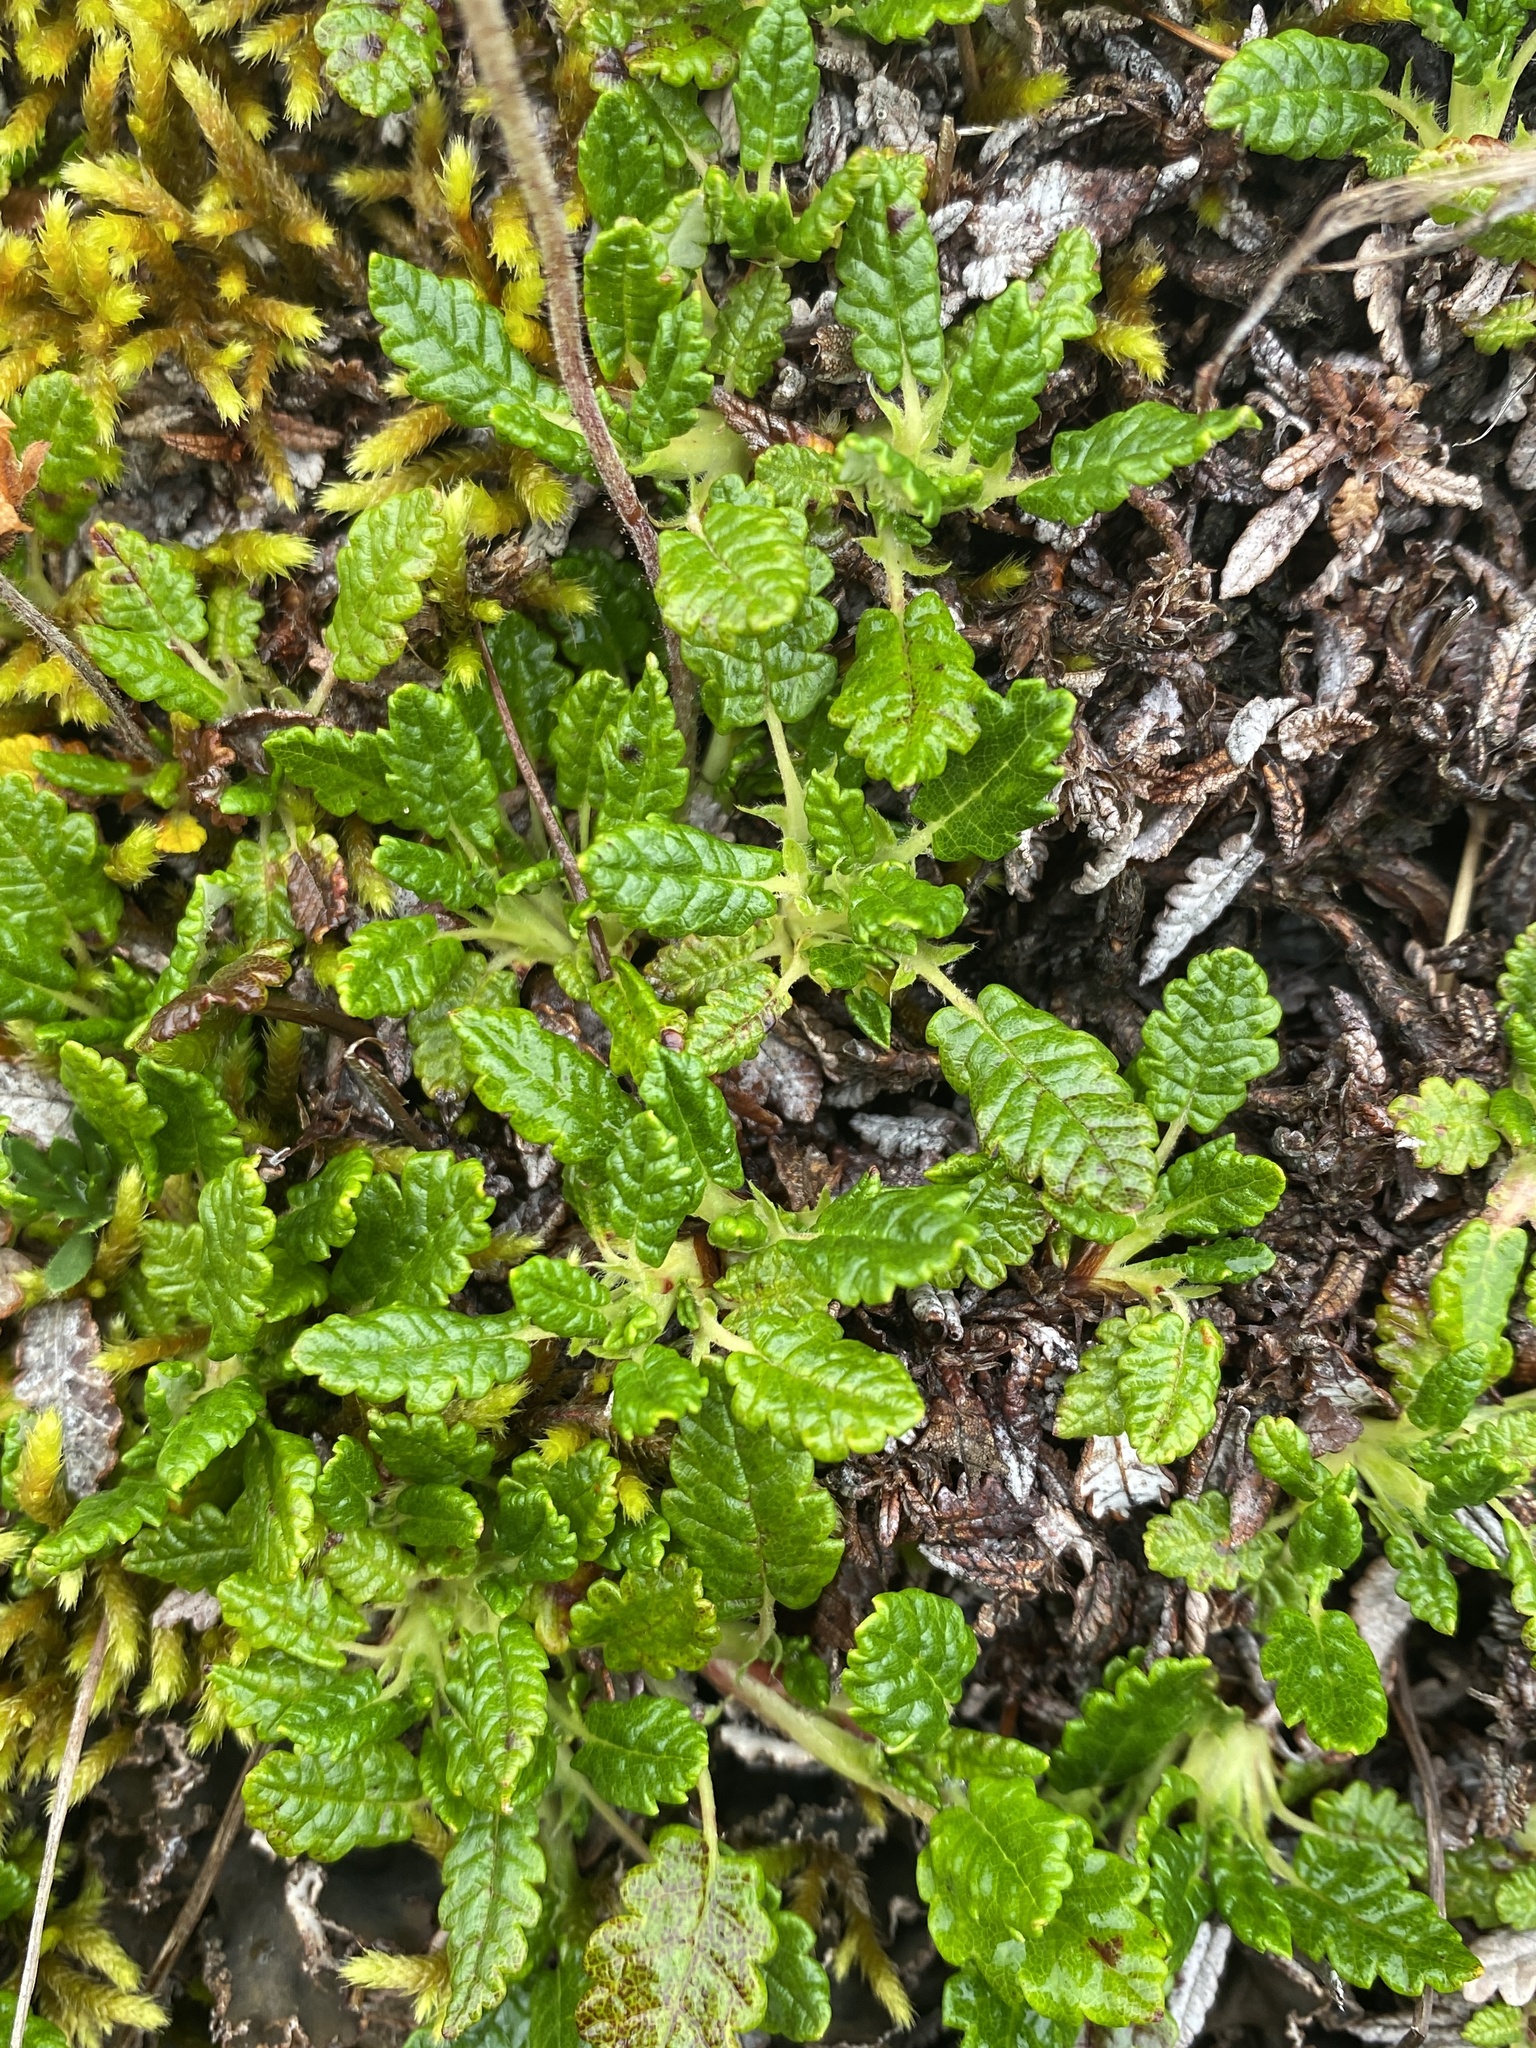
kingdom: Plantae
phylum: Tracheophyta
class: Magnoliopsida
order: Rosales
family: Rosaceae
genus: Dryas
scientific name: Dryas octopetala
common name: Eight-petal mountain-avens
